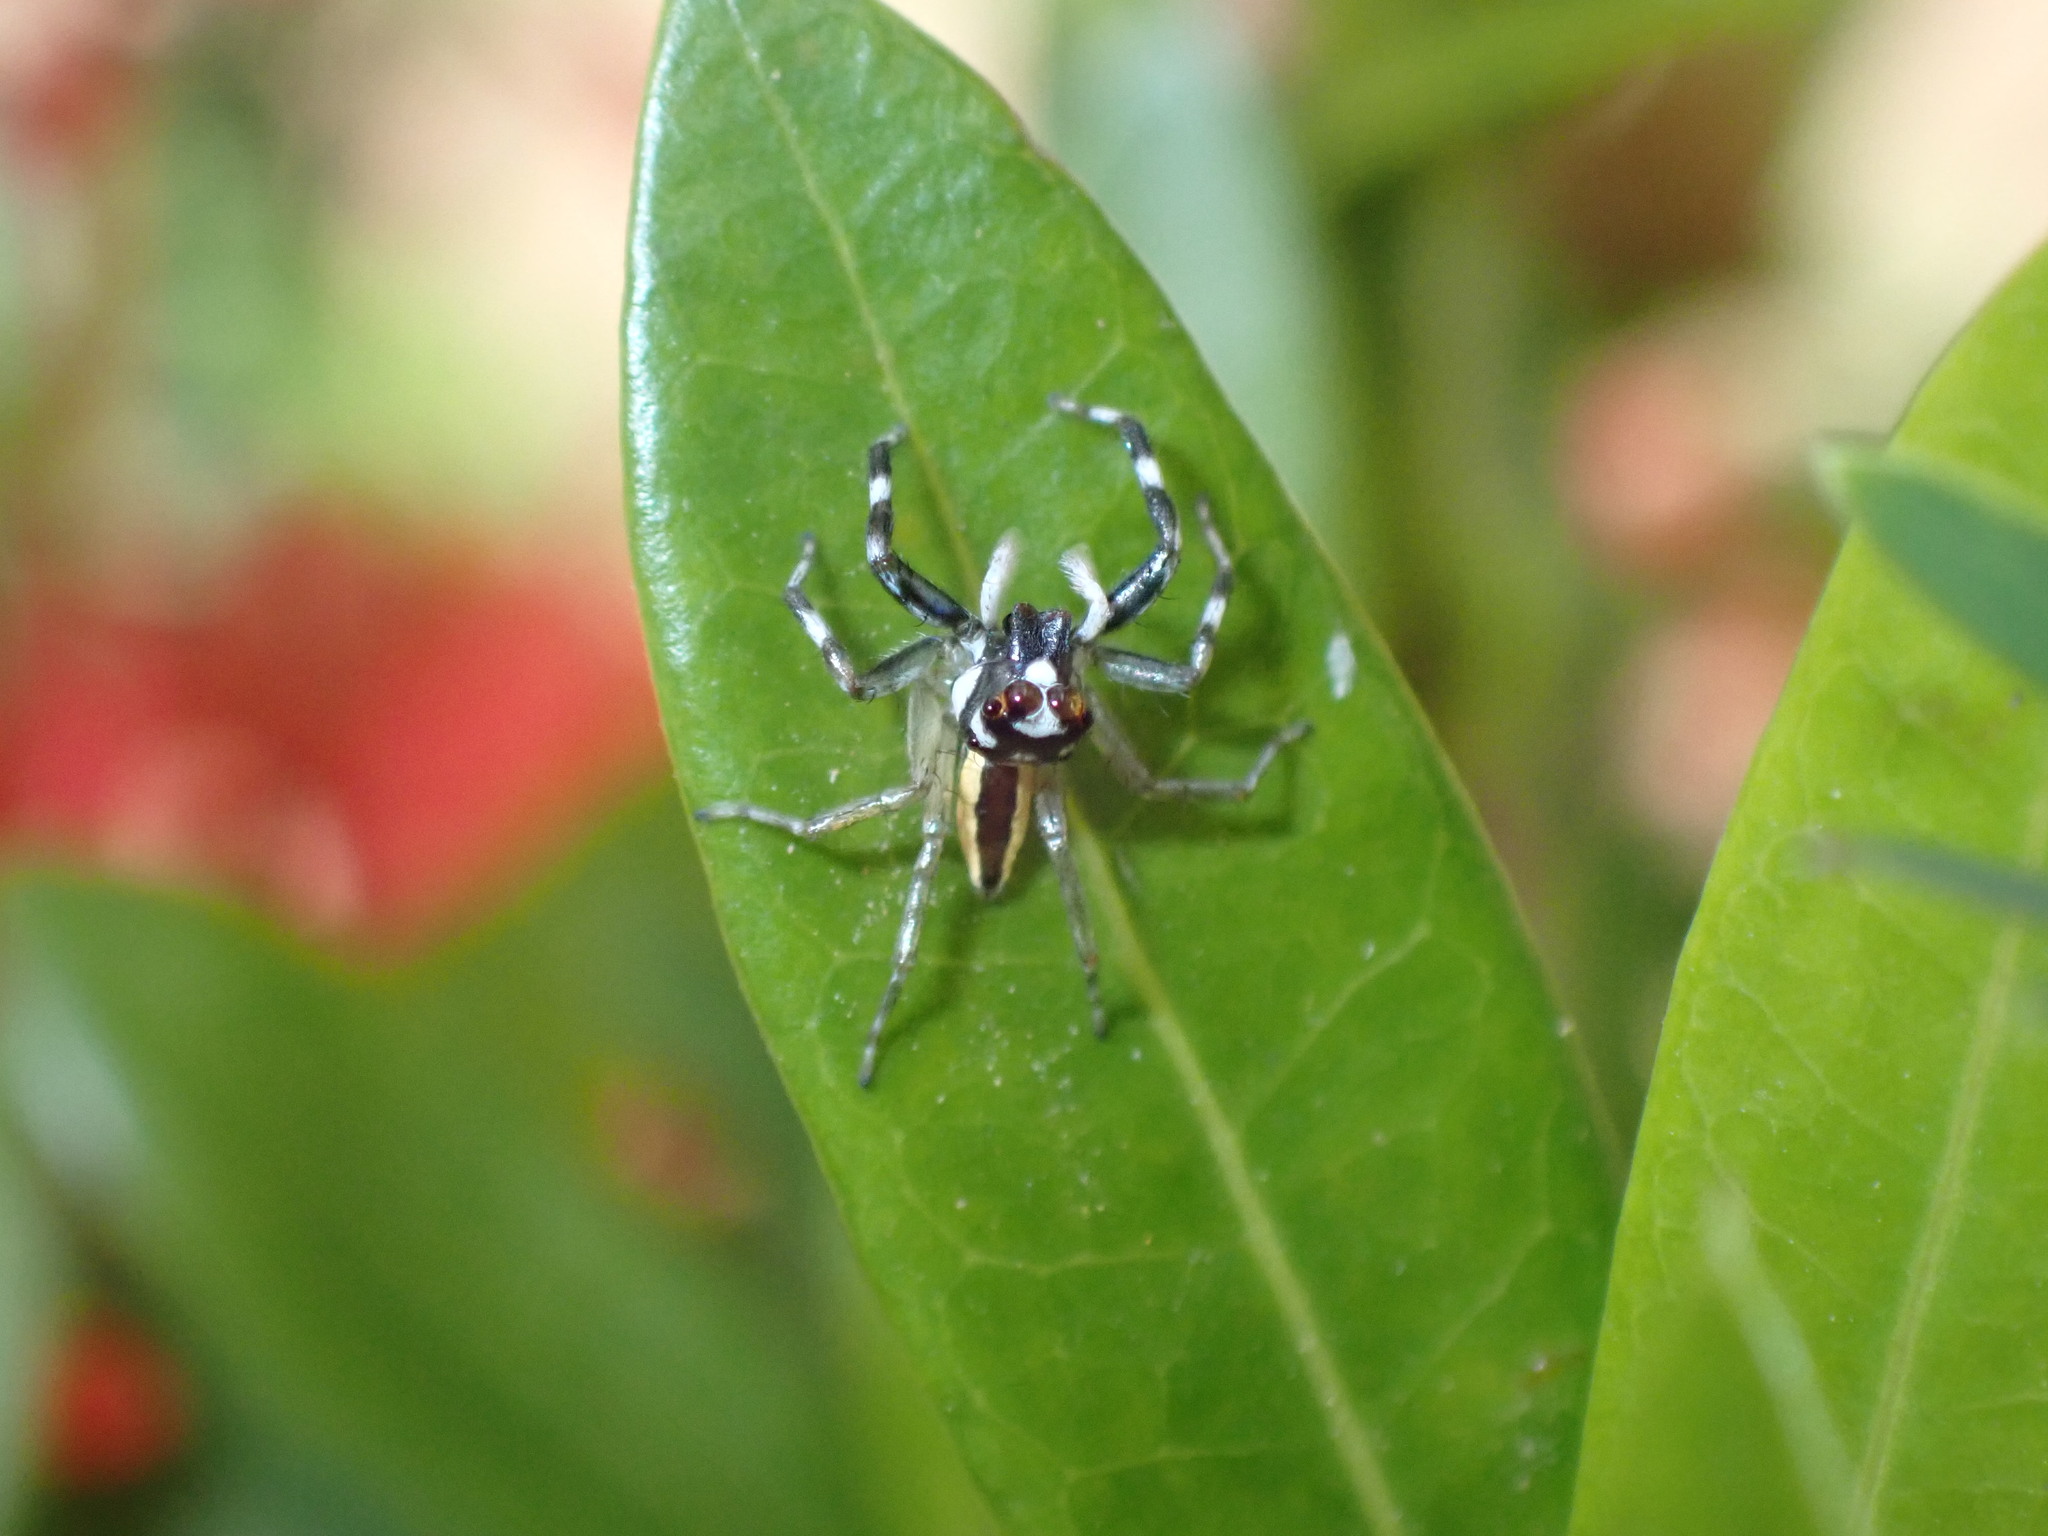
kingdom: Animalia
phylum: Arthropoda
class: Arachnida
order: Araneae
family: Salticidae
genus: Phintelloides
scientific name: Phintelloides versicolor
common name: Jumping spider
